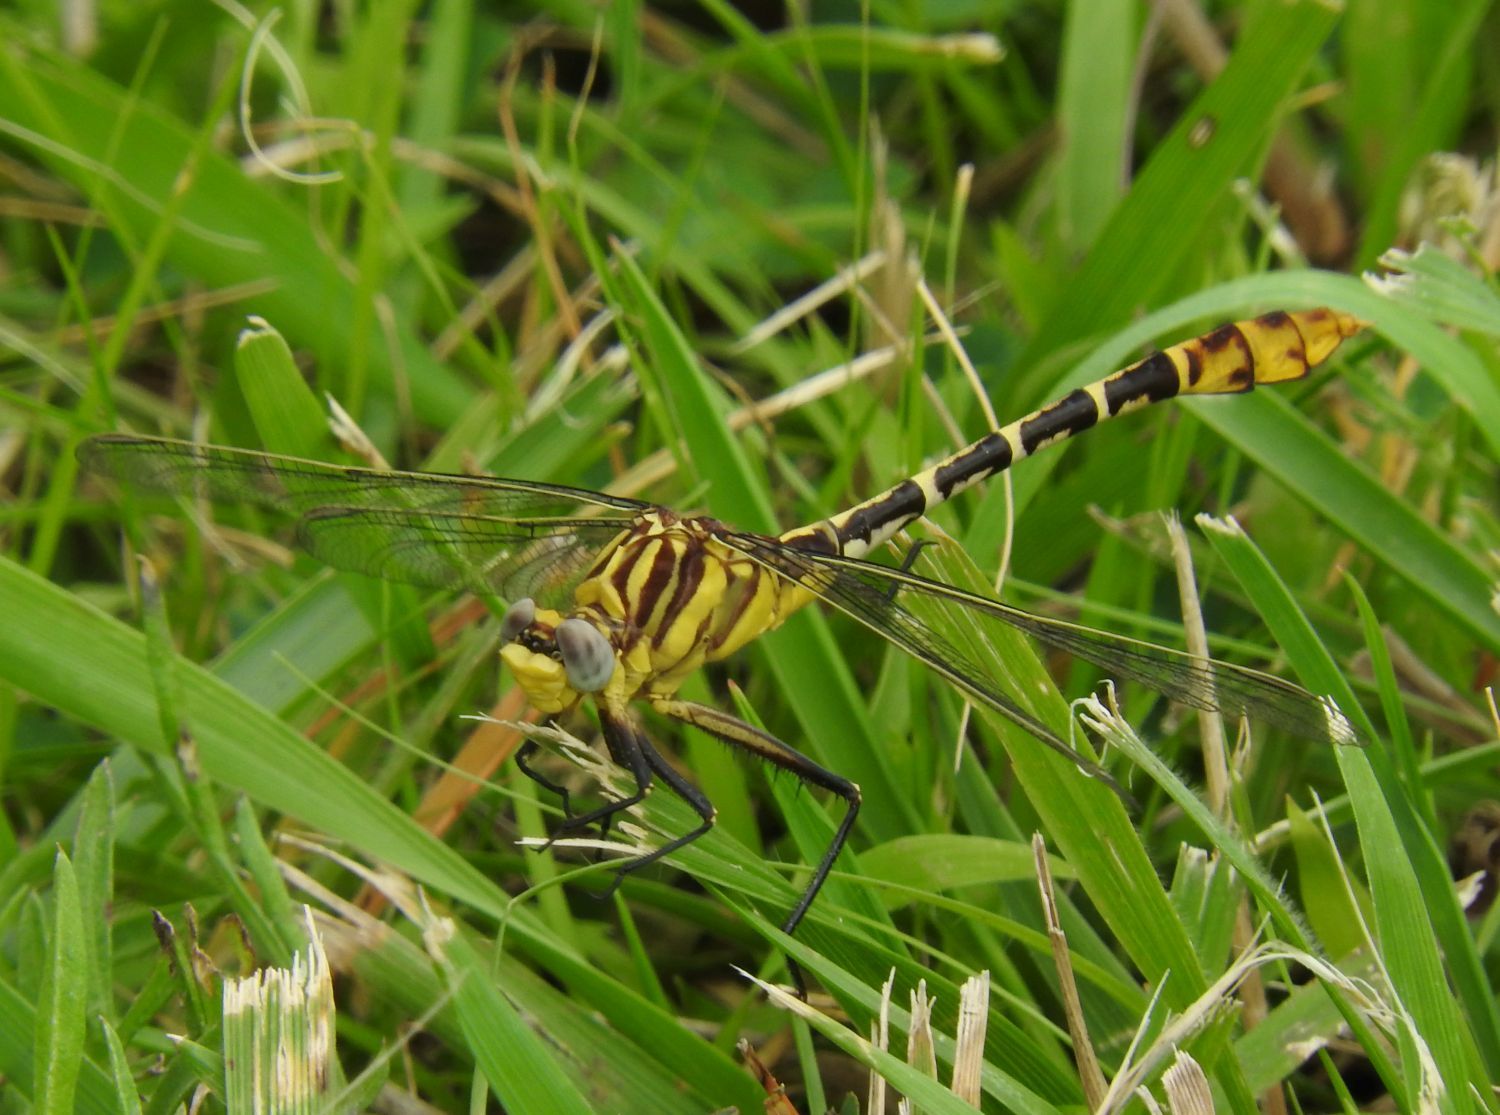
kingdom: Animalia
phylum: Arthropoda
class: Insecta
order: Odonata
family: Gomphidae
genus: Dromogomphus
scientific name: Dromogomphus spoliatus
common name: Flag-tailed spinyleg
